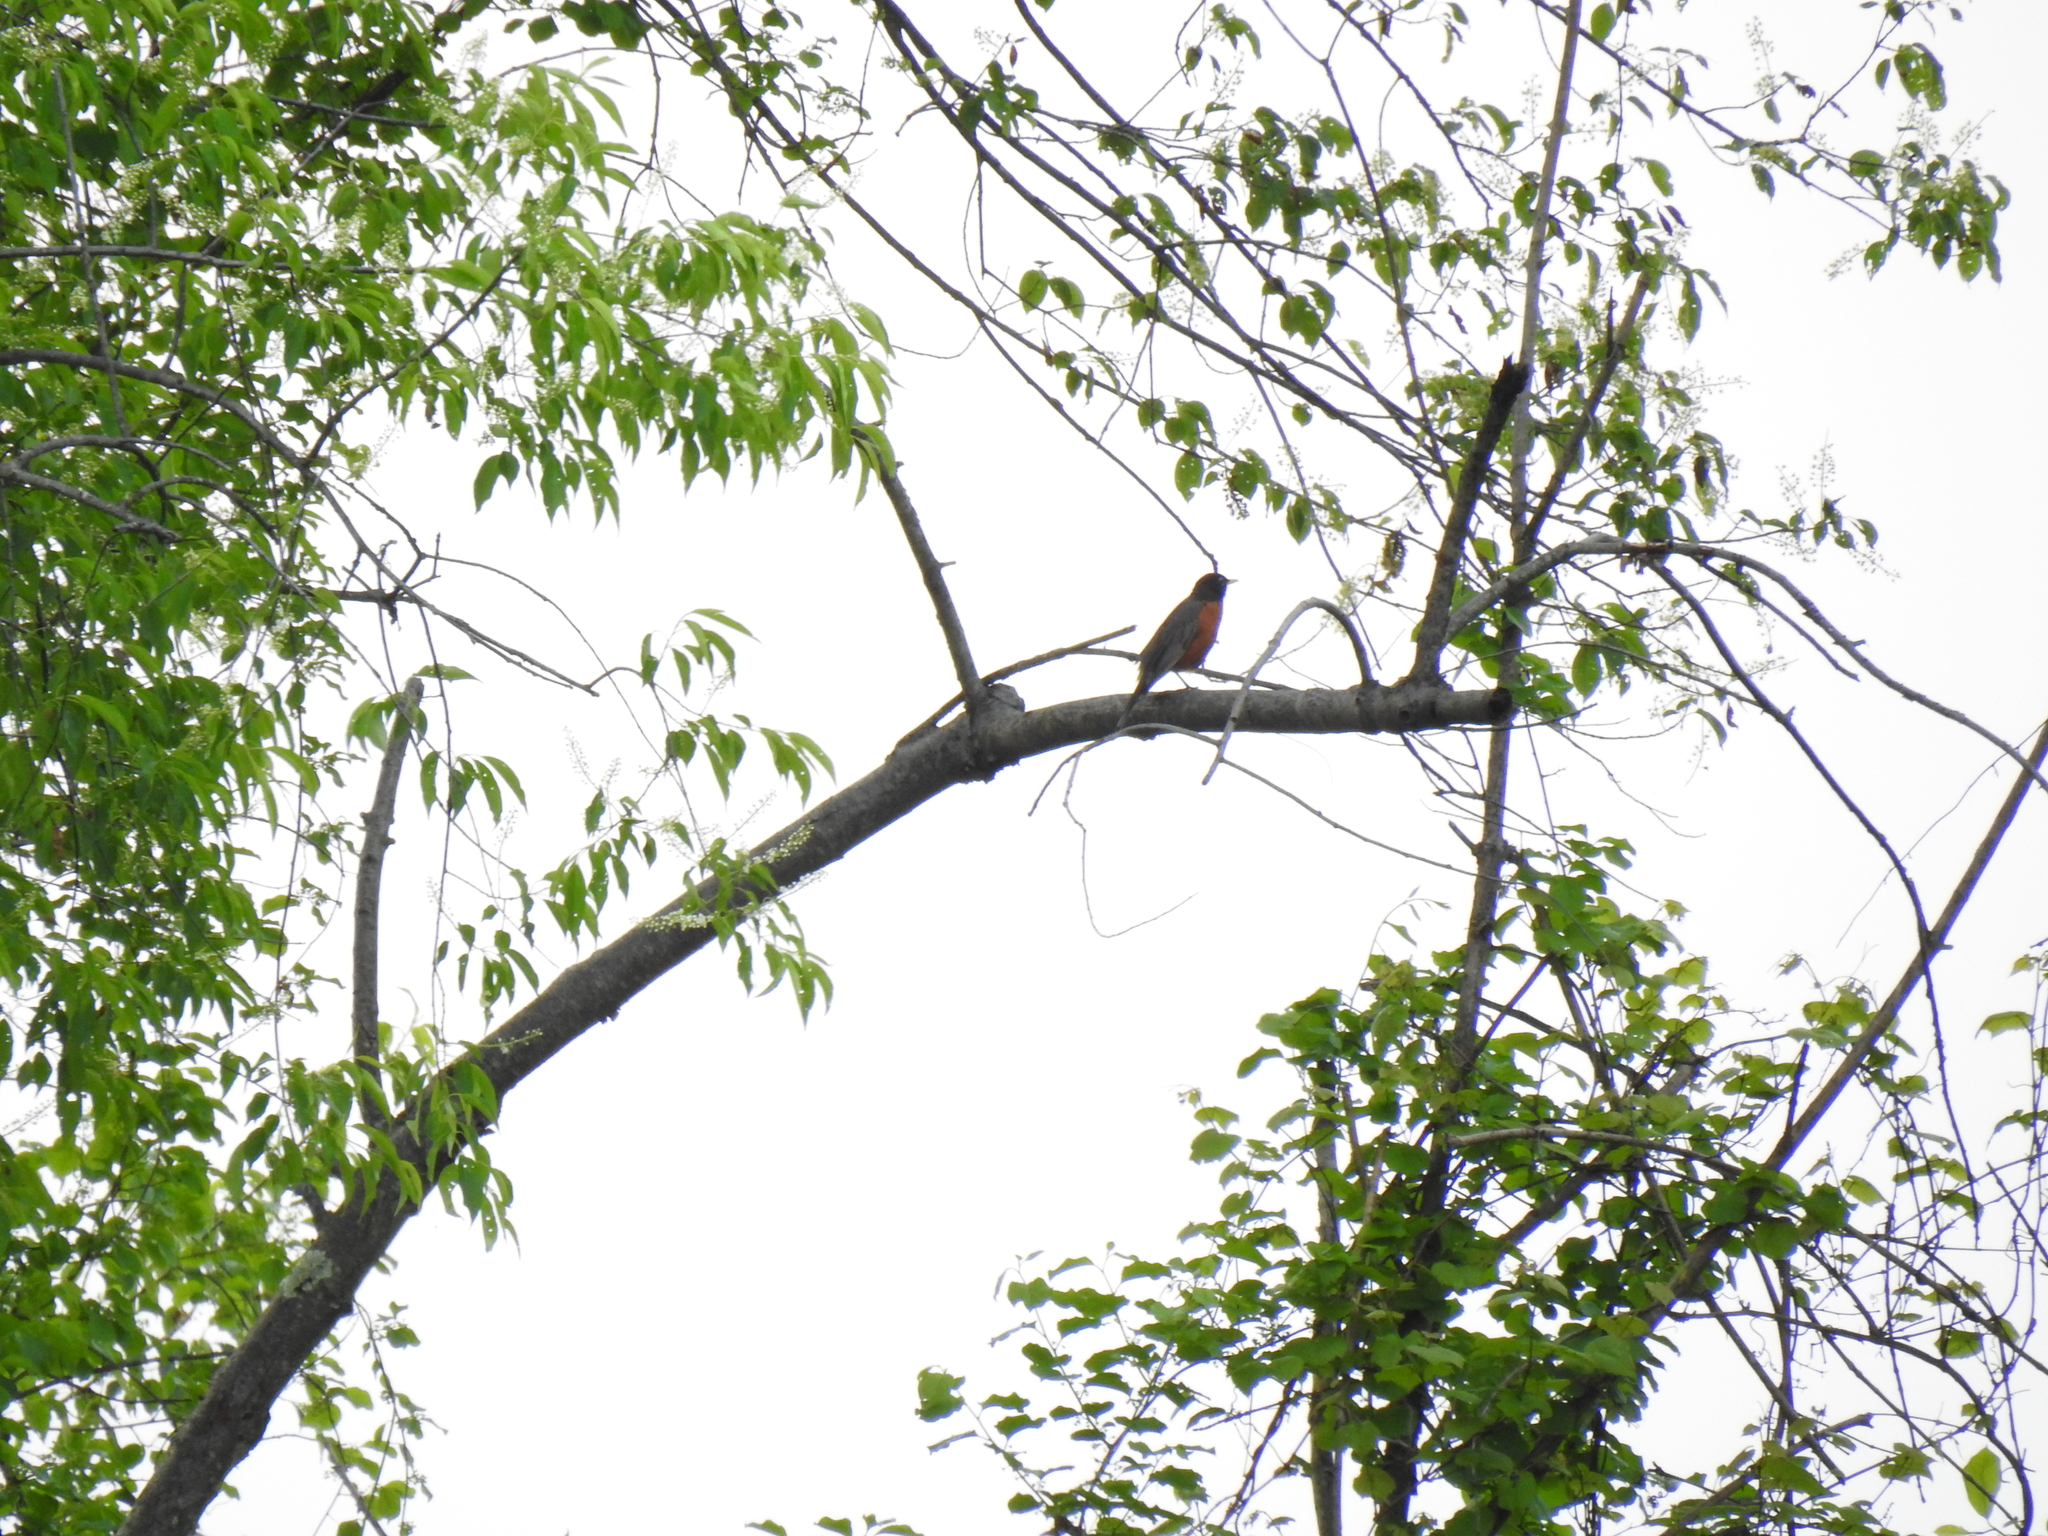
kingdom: Animalia
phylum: Chordata
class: Aves
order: Passeriformes
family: Turdidae
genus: Turdus
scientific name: Turdus migratorius
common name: American robin
